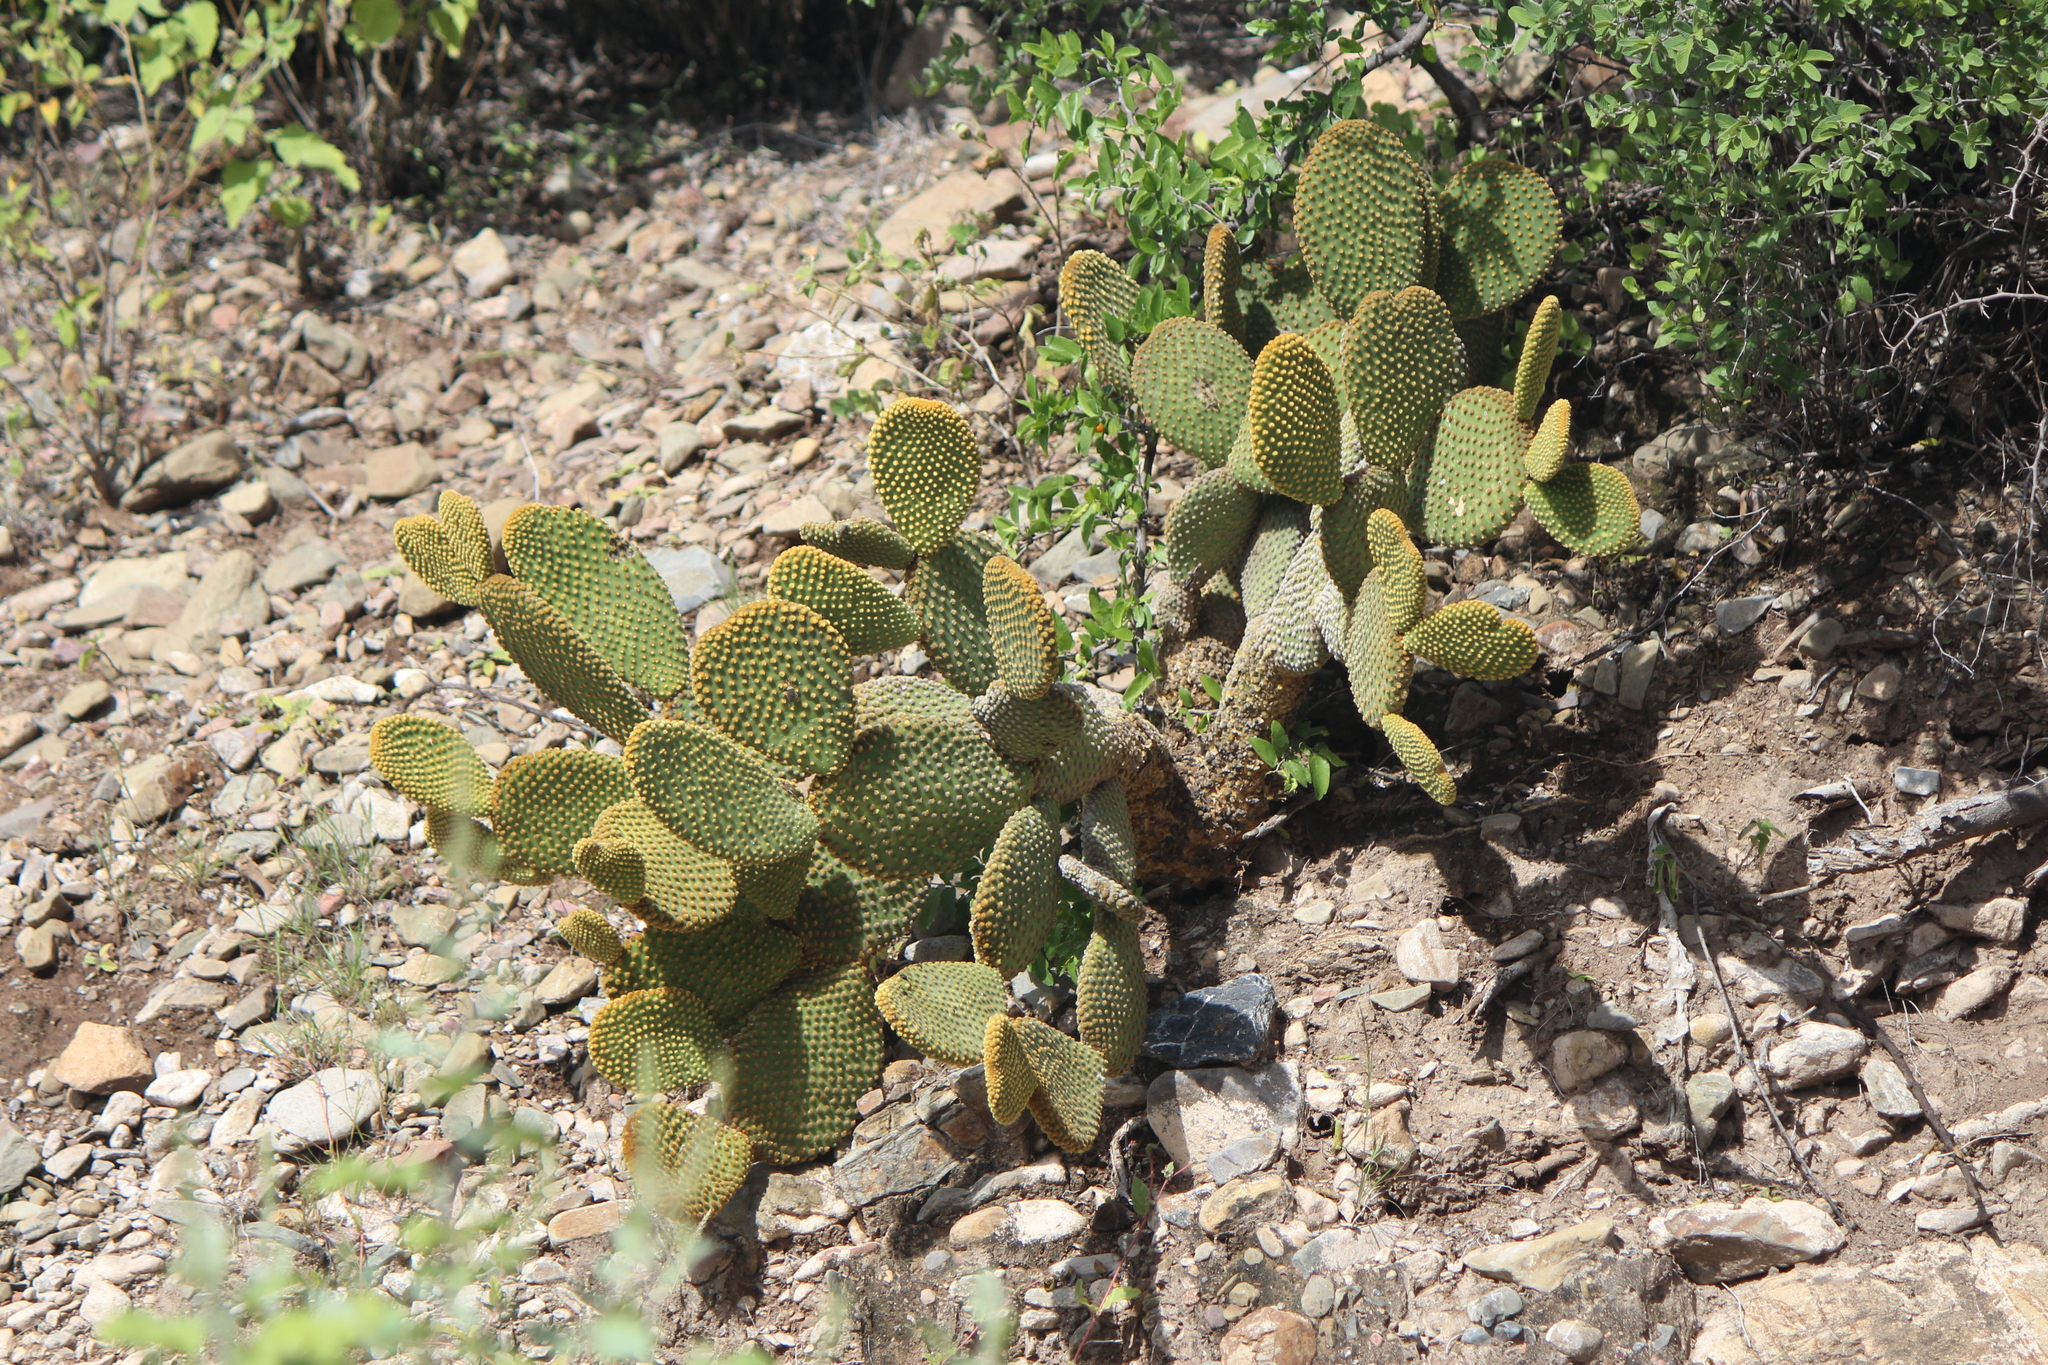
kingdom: Plantae
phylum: Tracheophyta
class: Magnoliopsida
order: Caryophyllales
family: Cactaceae
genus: Opuntia
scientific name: Opuntia microdasys
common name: Angel's-wings
